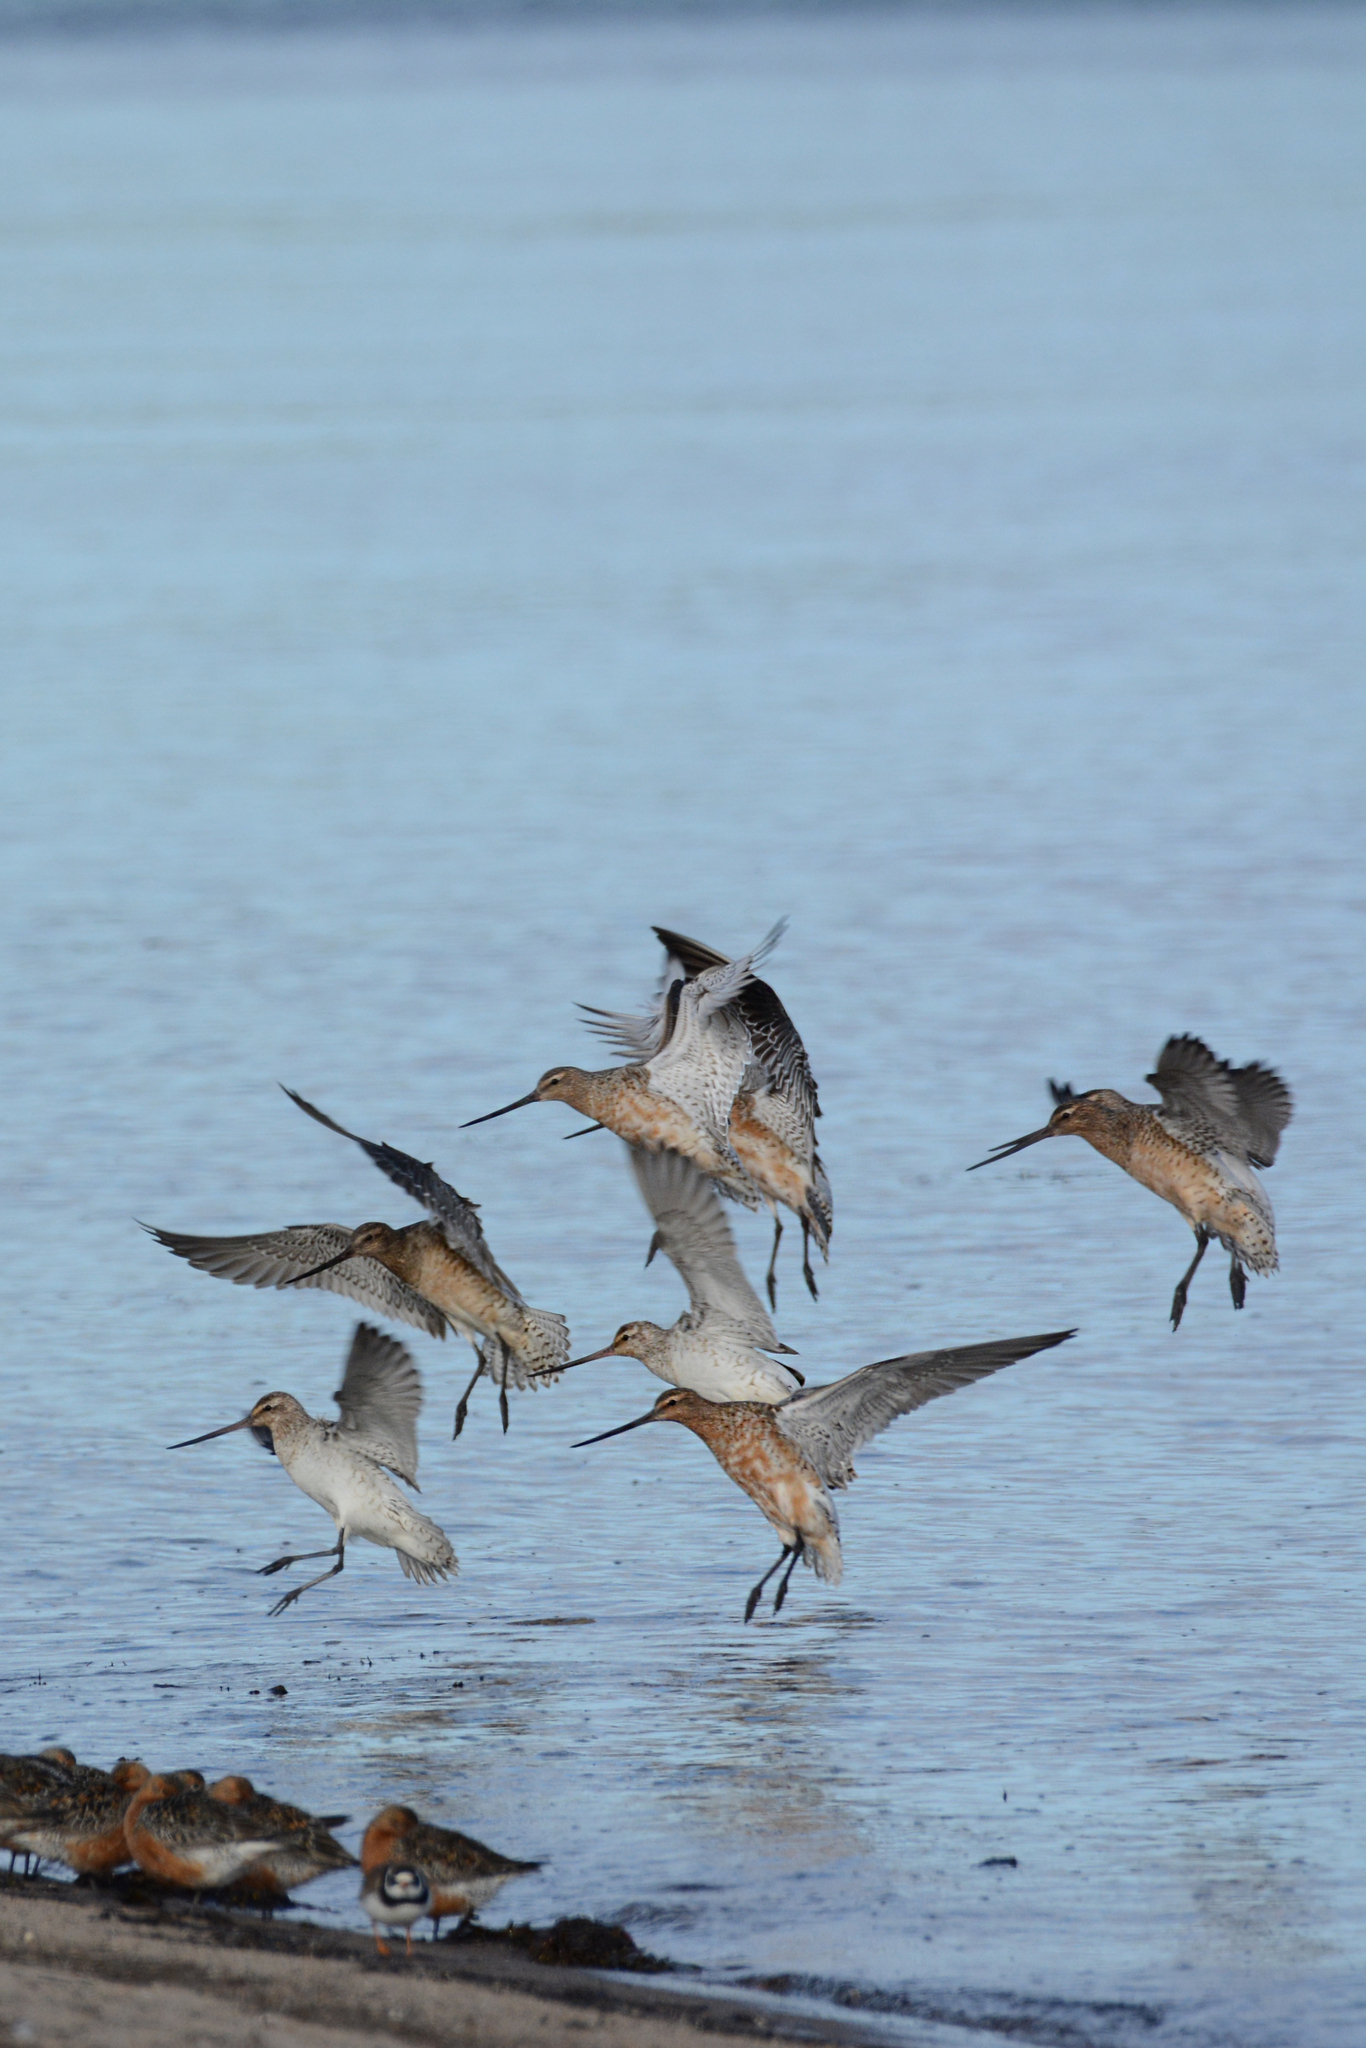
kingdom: Animalia
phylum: Chordata
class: Aves
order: Charadriiformes
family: Scolopacidae
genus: Limosa
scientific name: Limosa lapponica
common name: Bar-tailed godwit
